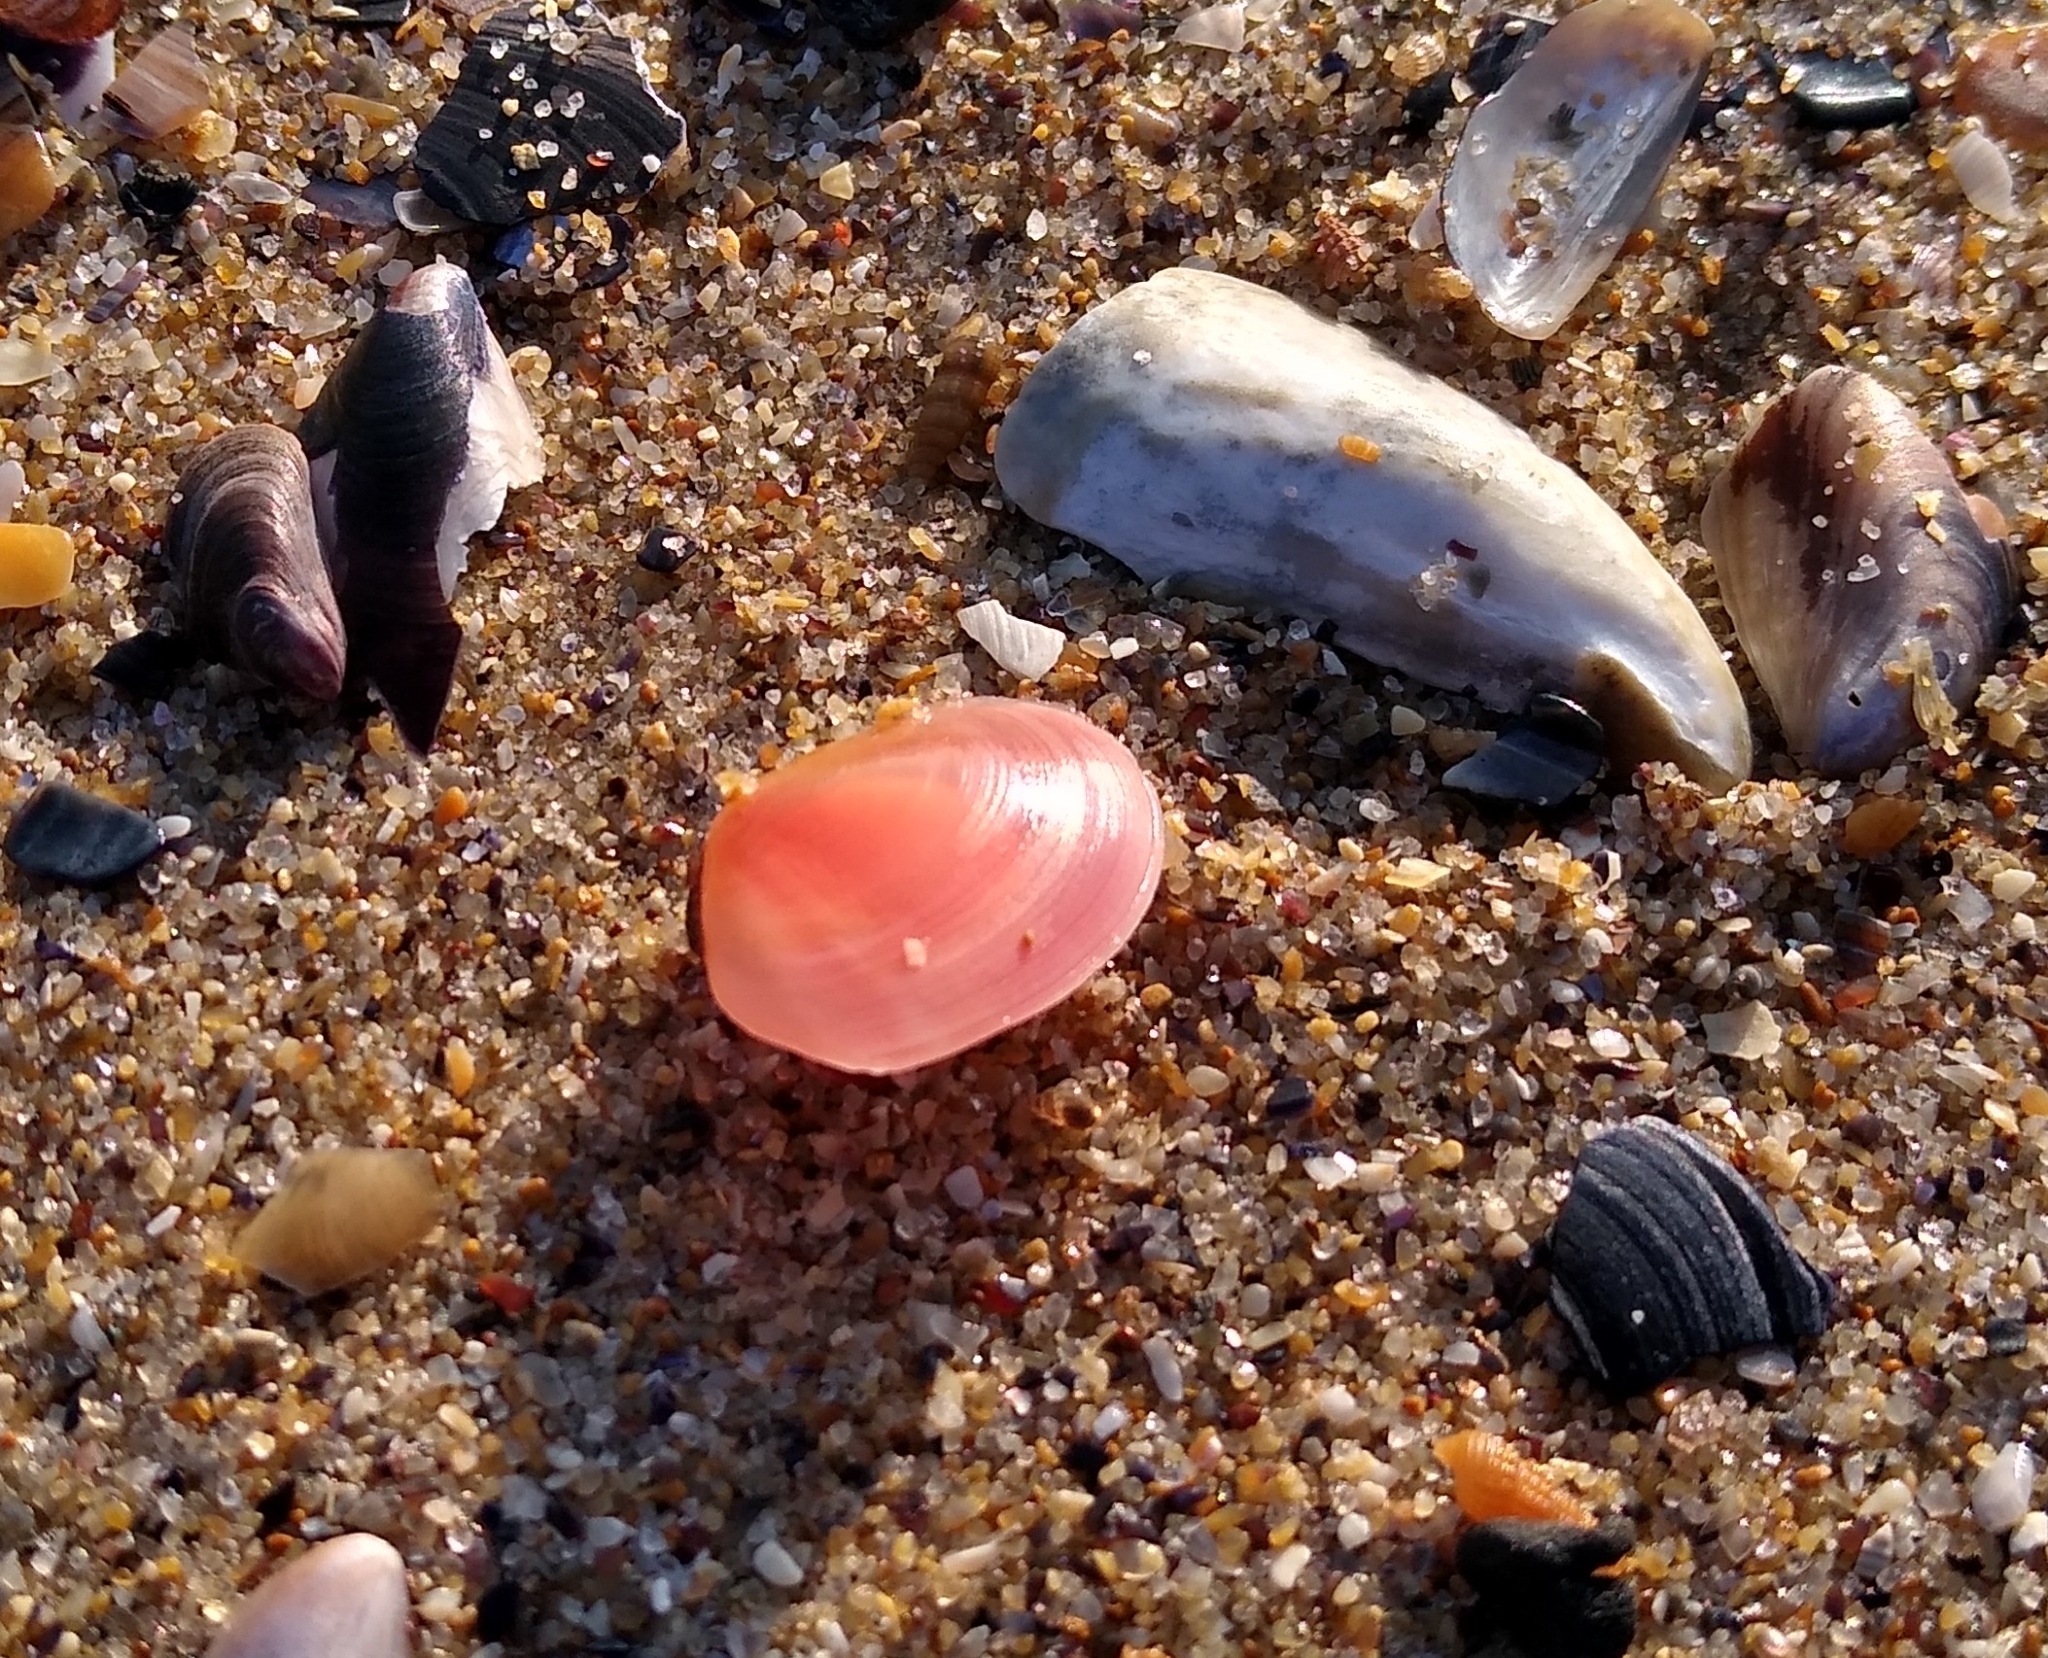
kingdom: Animalia
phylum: Mollusca
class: Bivalvia
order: Cardiida
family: Tellinidae
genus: Macomangulus
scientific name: Macomangulus tenuis
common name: Thin tellin
